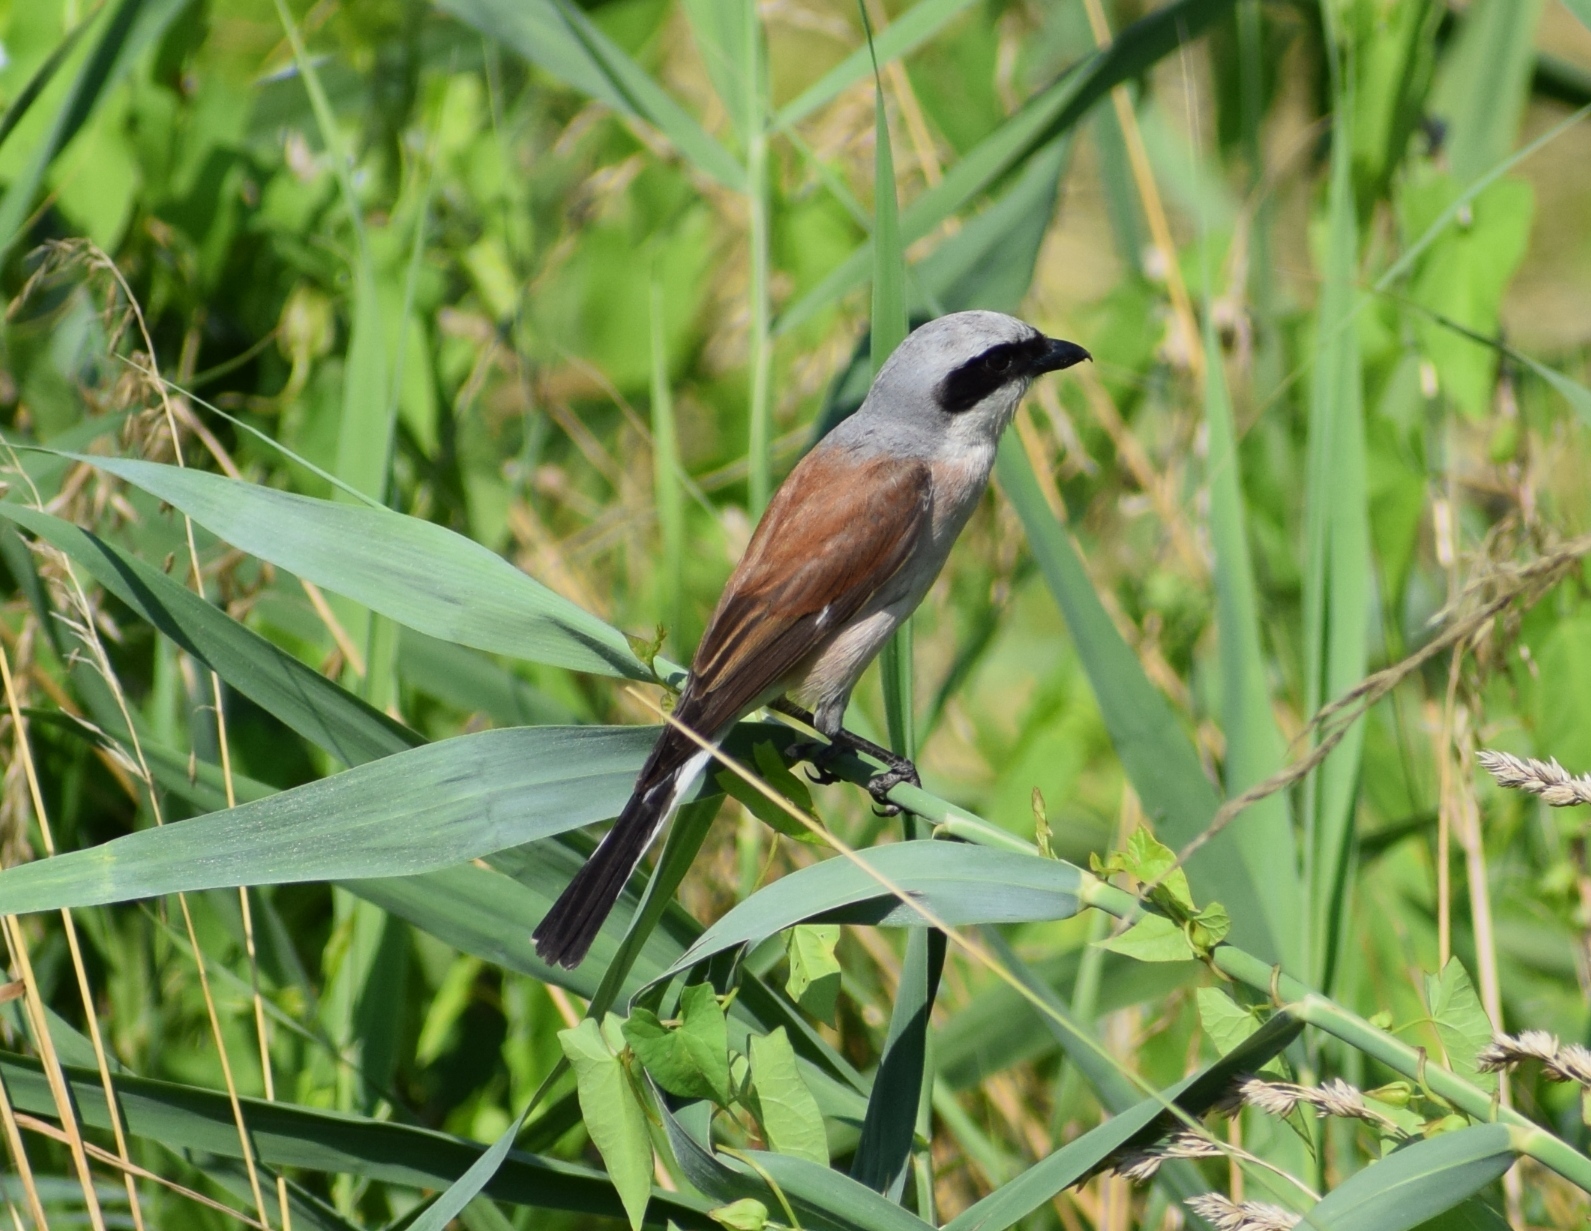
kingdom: Animalia
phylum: Chordata
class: Aves
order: Passeriformes
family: Laniidae
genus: Lanius
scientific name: Lanius collurio
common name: Red-backed shrike
